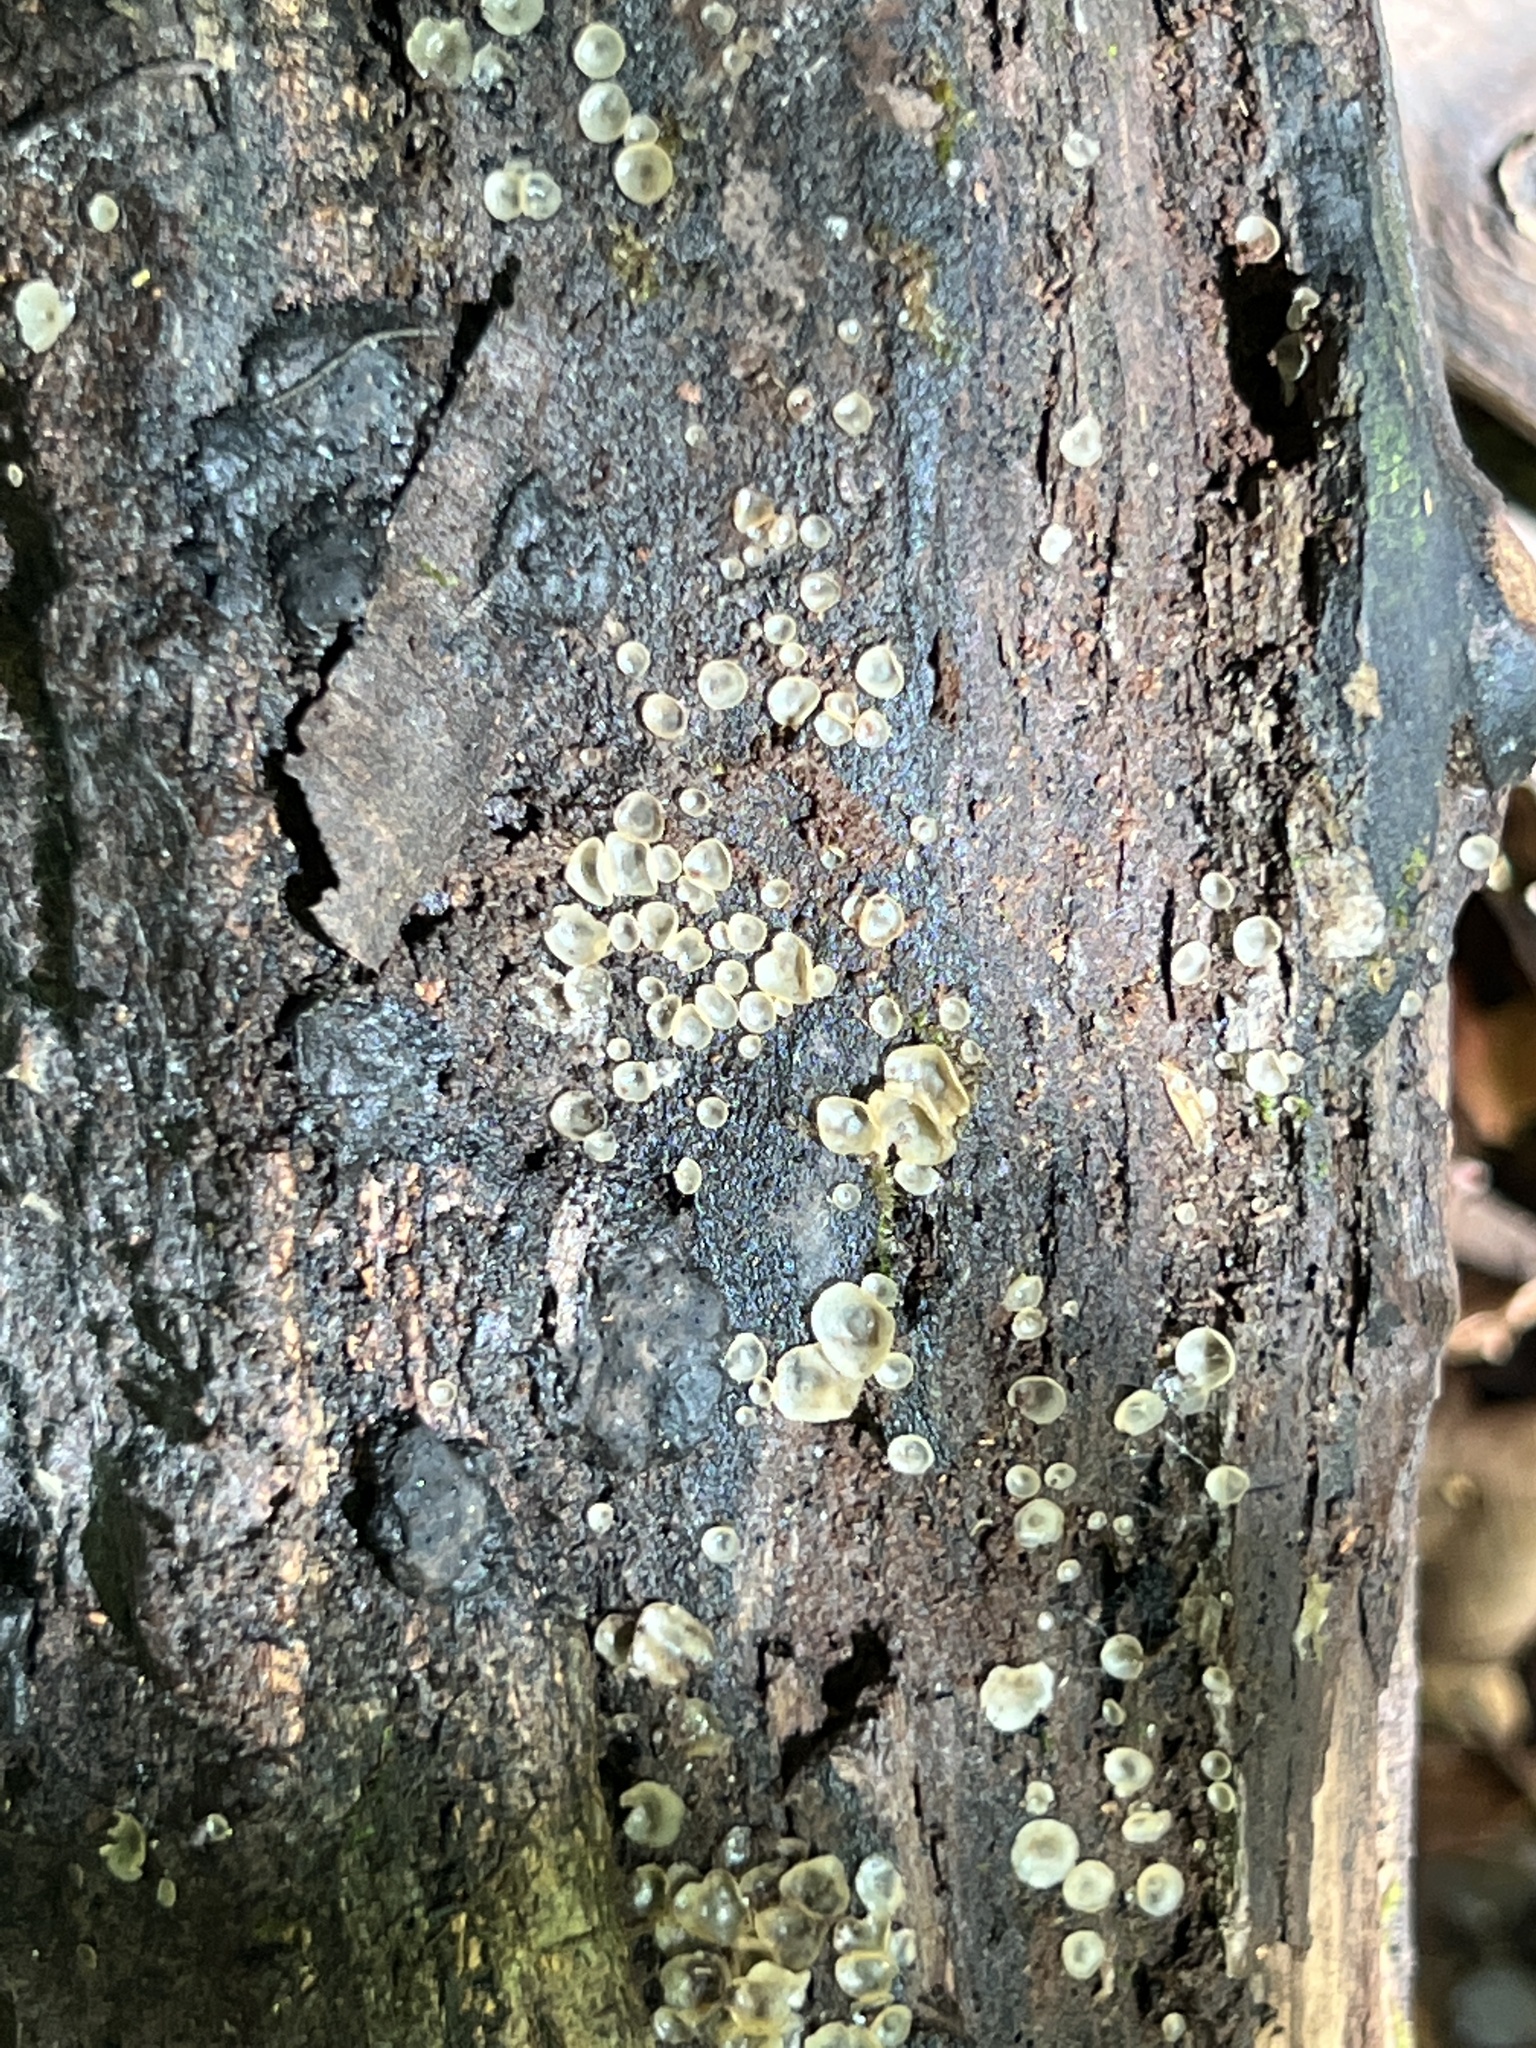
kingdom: Fungi
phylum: Ascomycota
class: Orbiliomycetes
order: Orbiliales
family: Orbiliaceae
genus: Hyalorbilia
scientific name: Hyalorbilia inflatula
